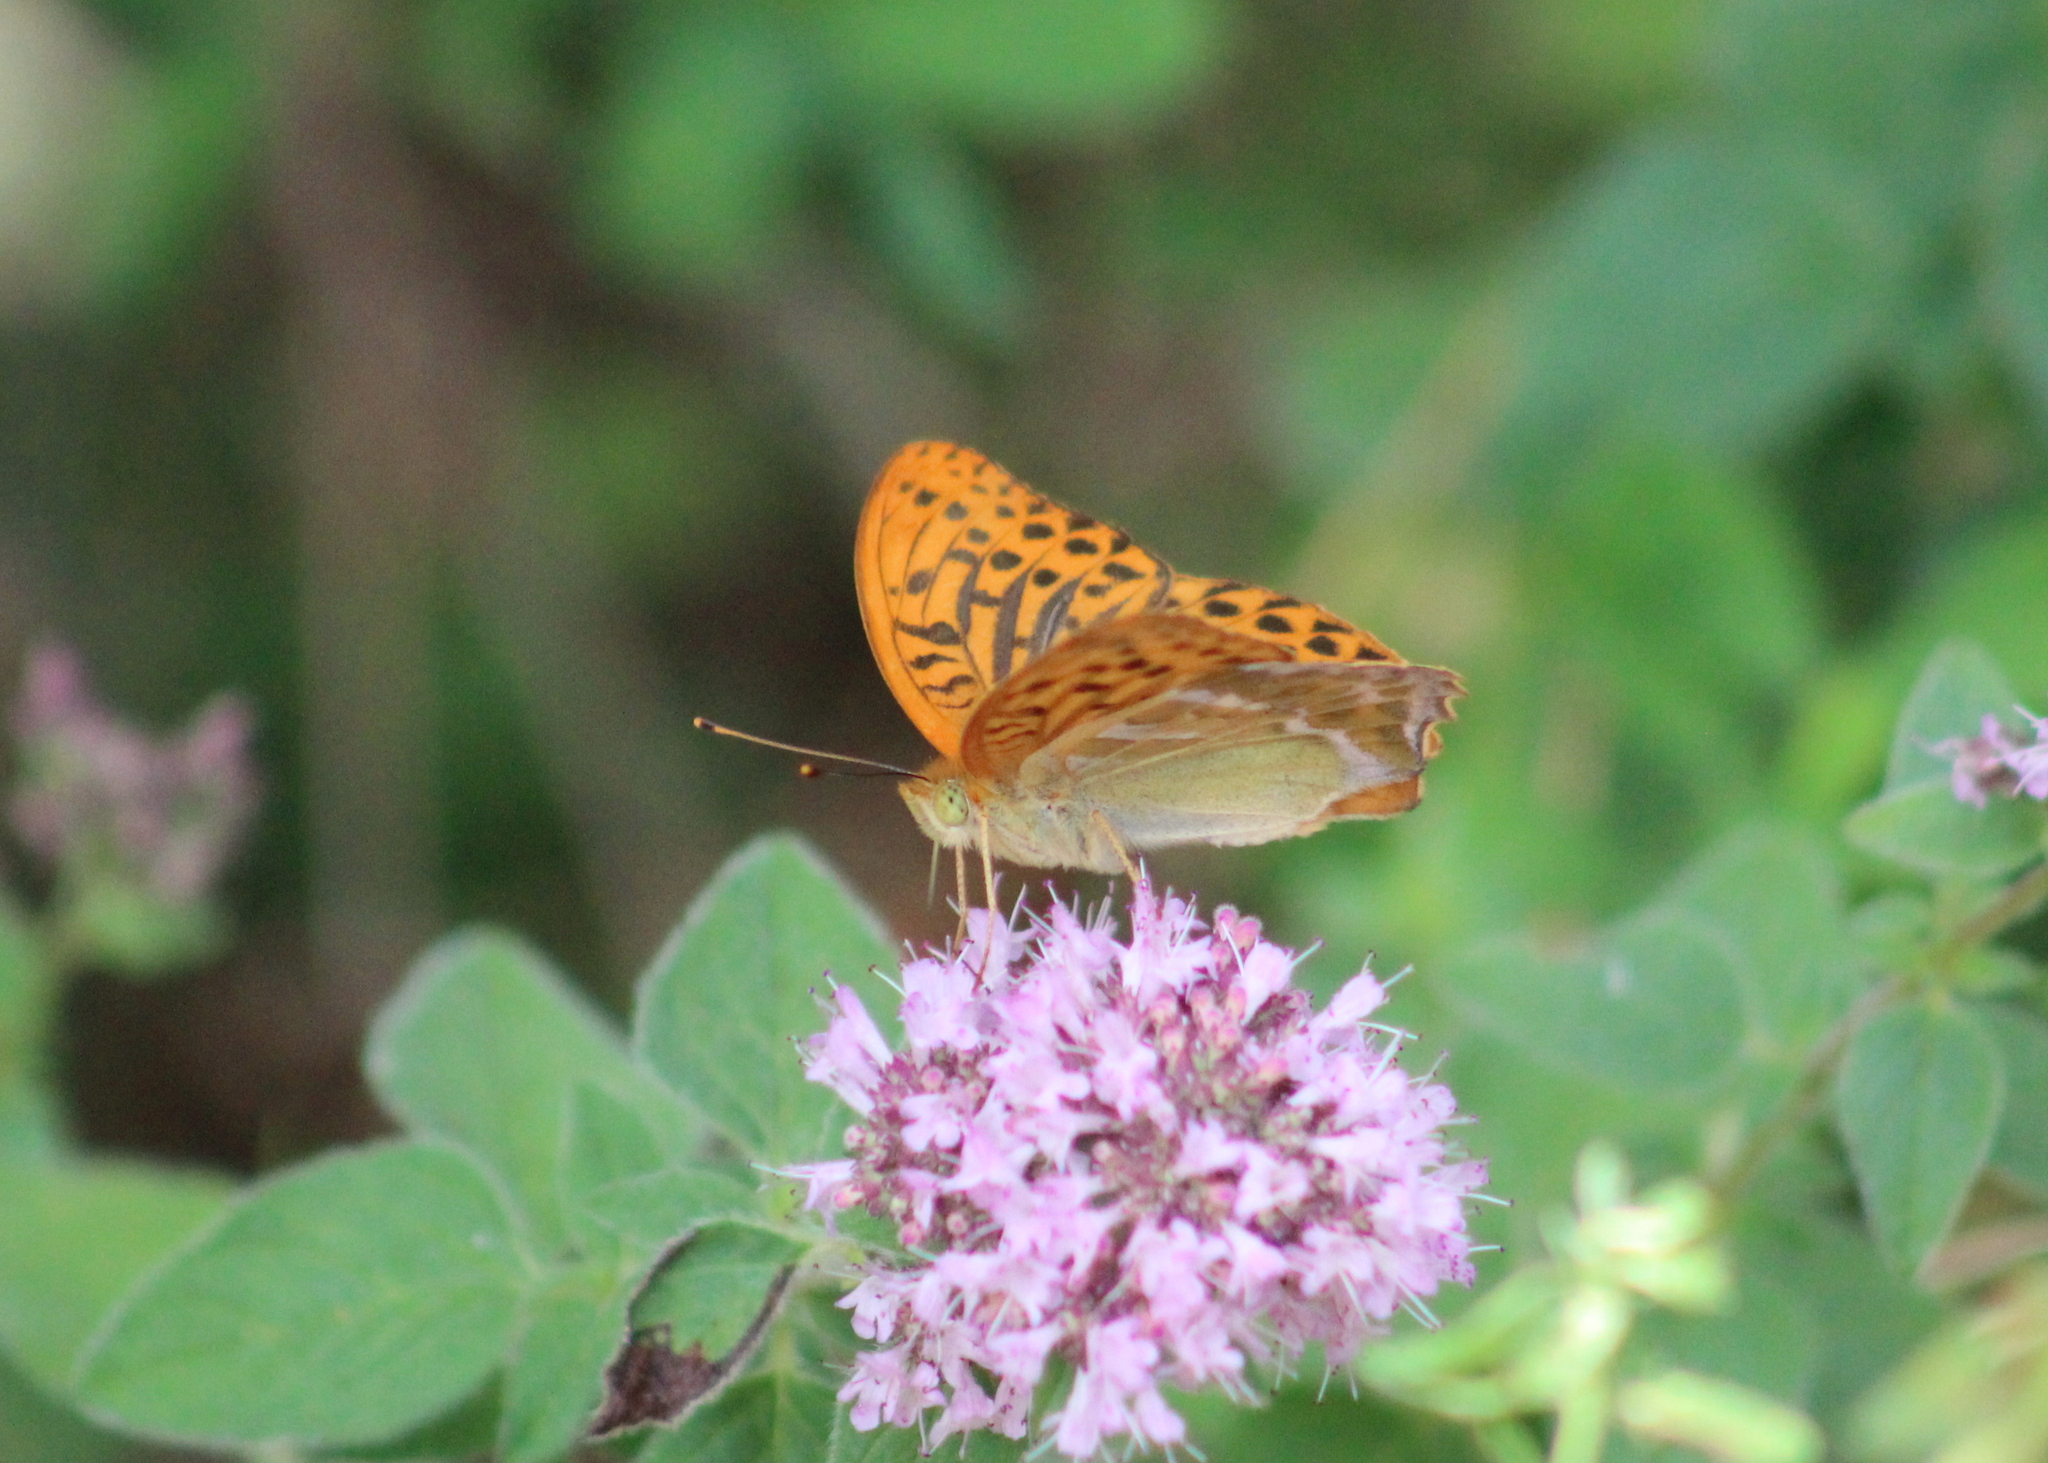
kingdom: Animalia
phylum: Arthropoda
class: Insecta
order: Lepidoptera
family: Nymphalidae
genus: Argynnis
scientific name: Argynnis paphia
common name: Silver-washed fritillary
